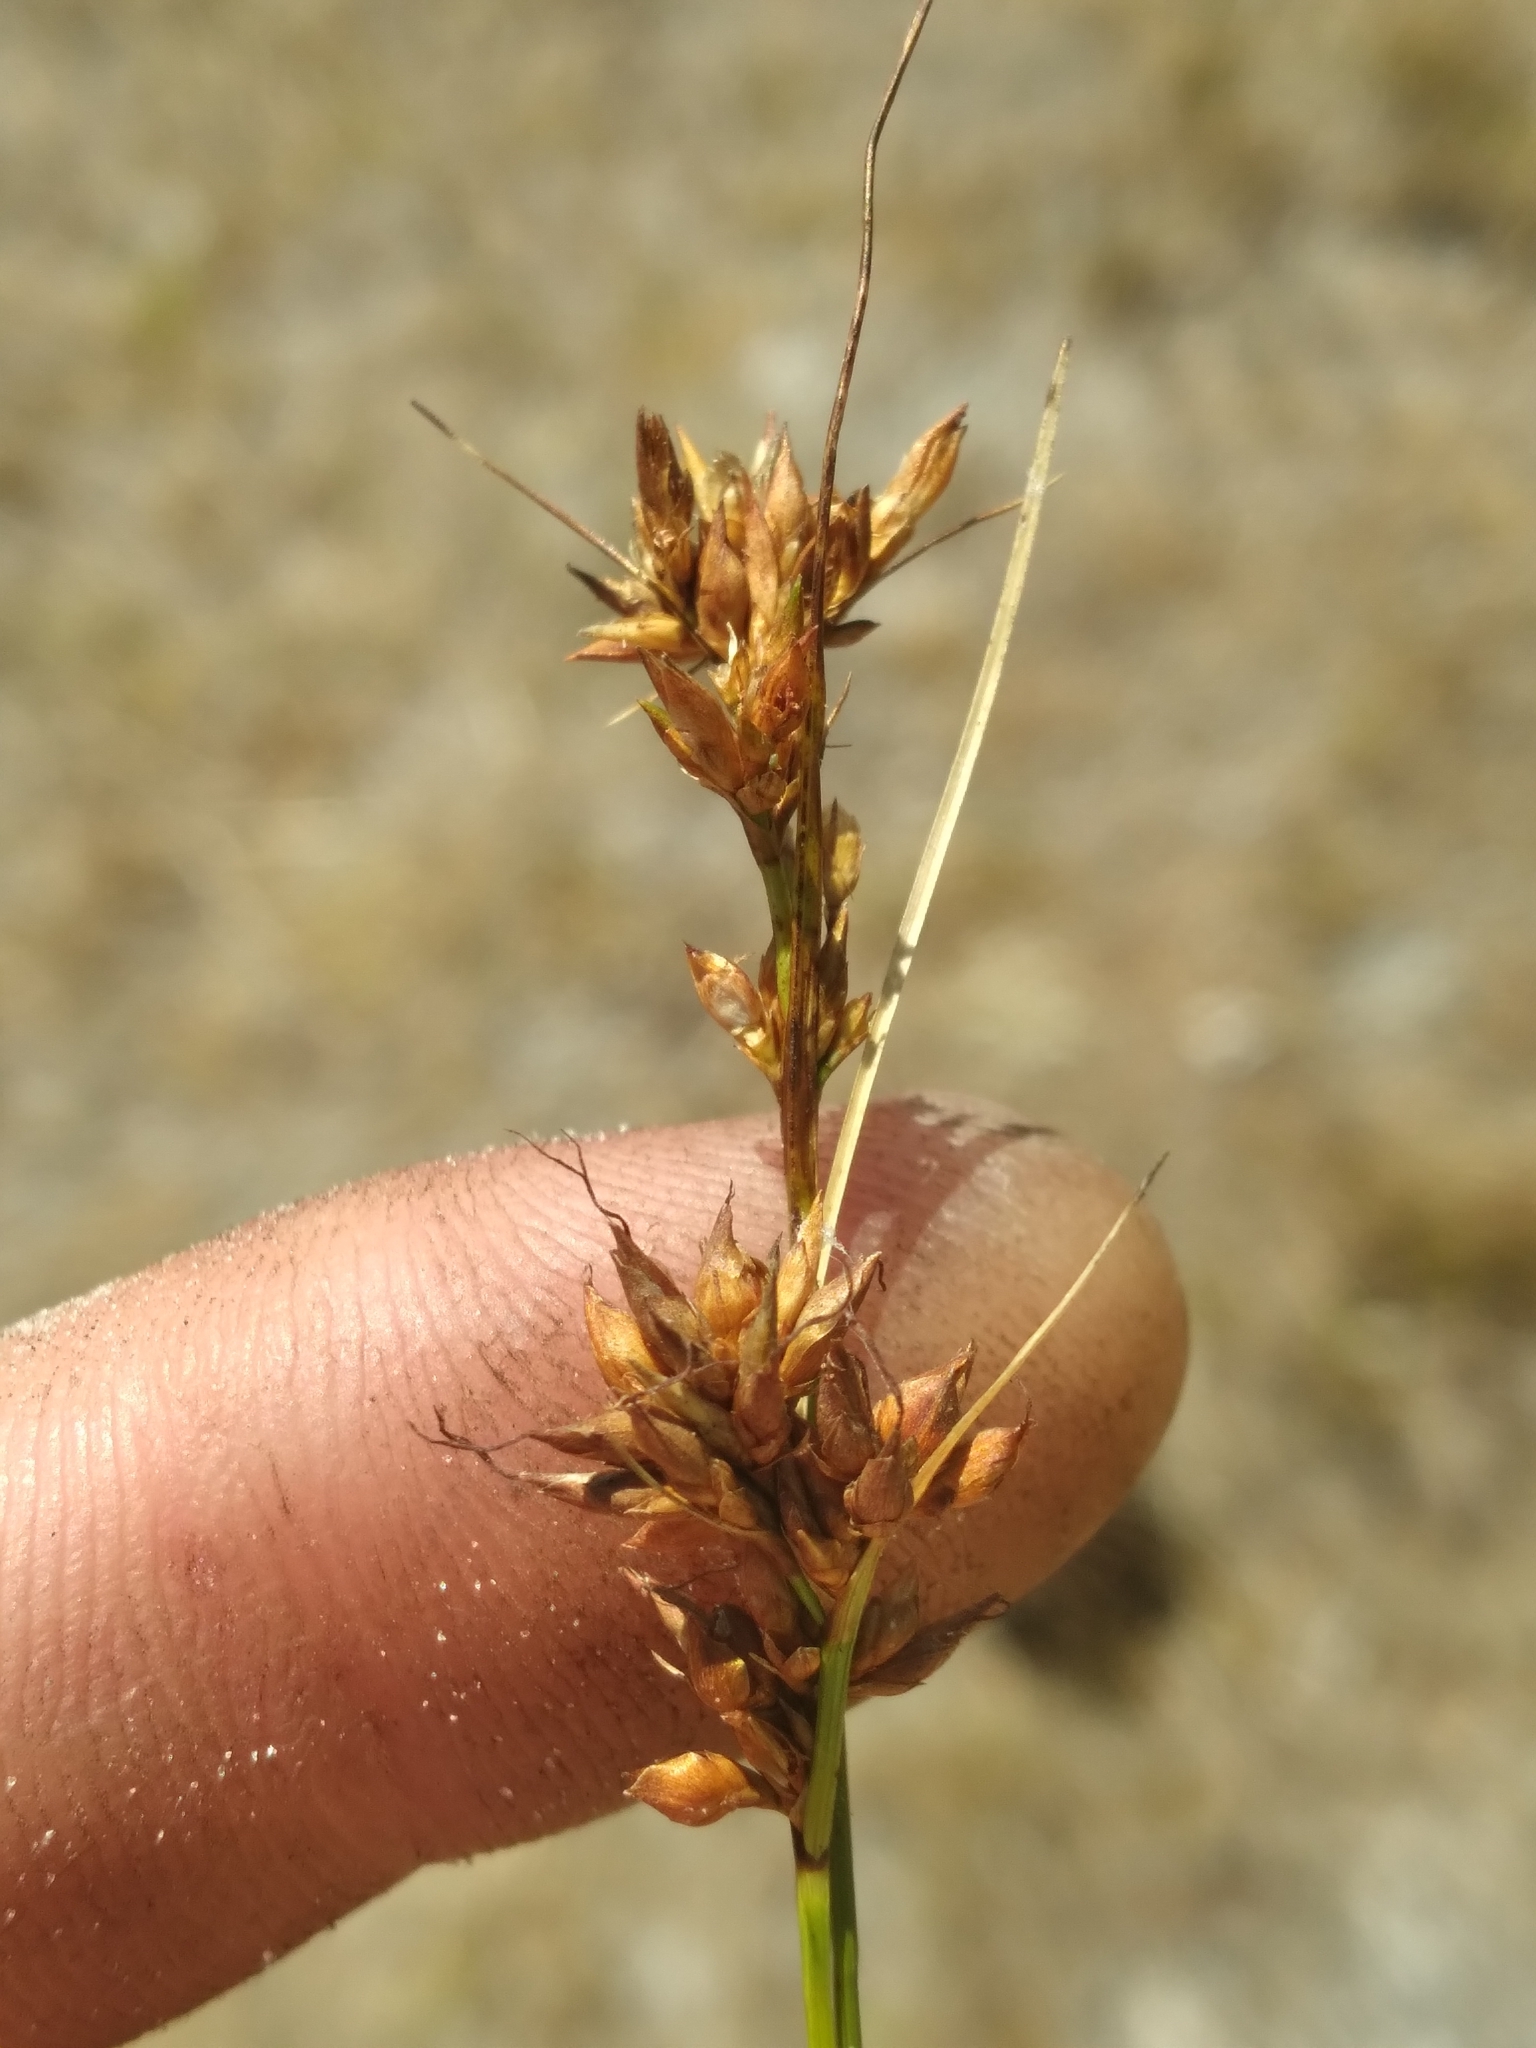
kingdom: Plantae
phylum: Tracheophyta
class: Liliopsida
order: Poales
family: Cyperaceae
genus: Rhynchospora
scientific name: Rhynchospora intermedia
